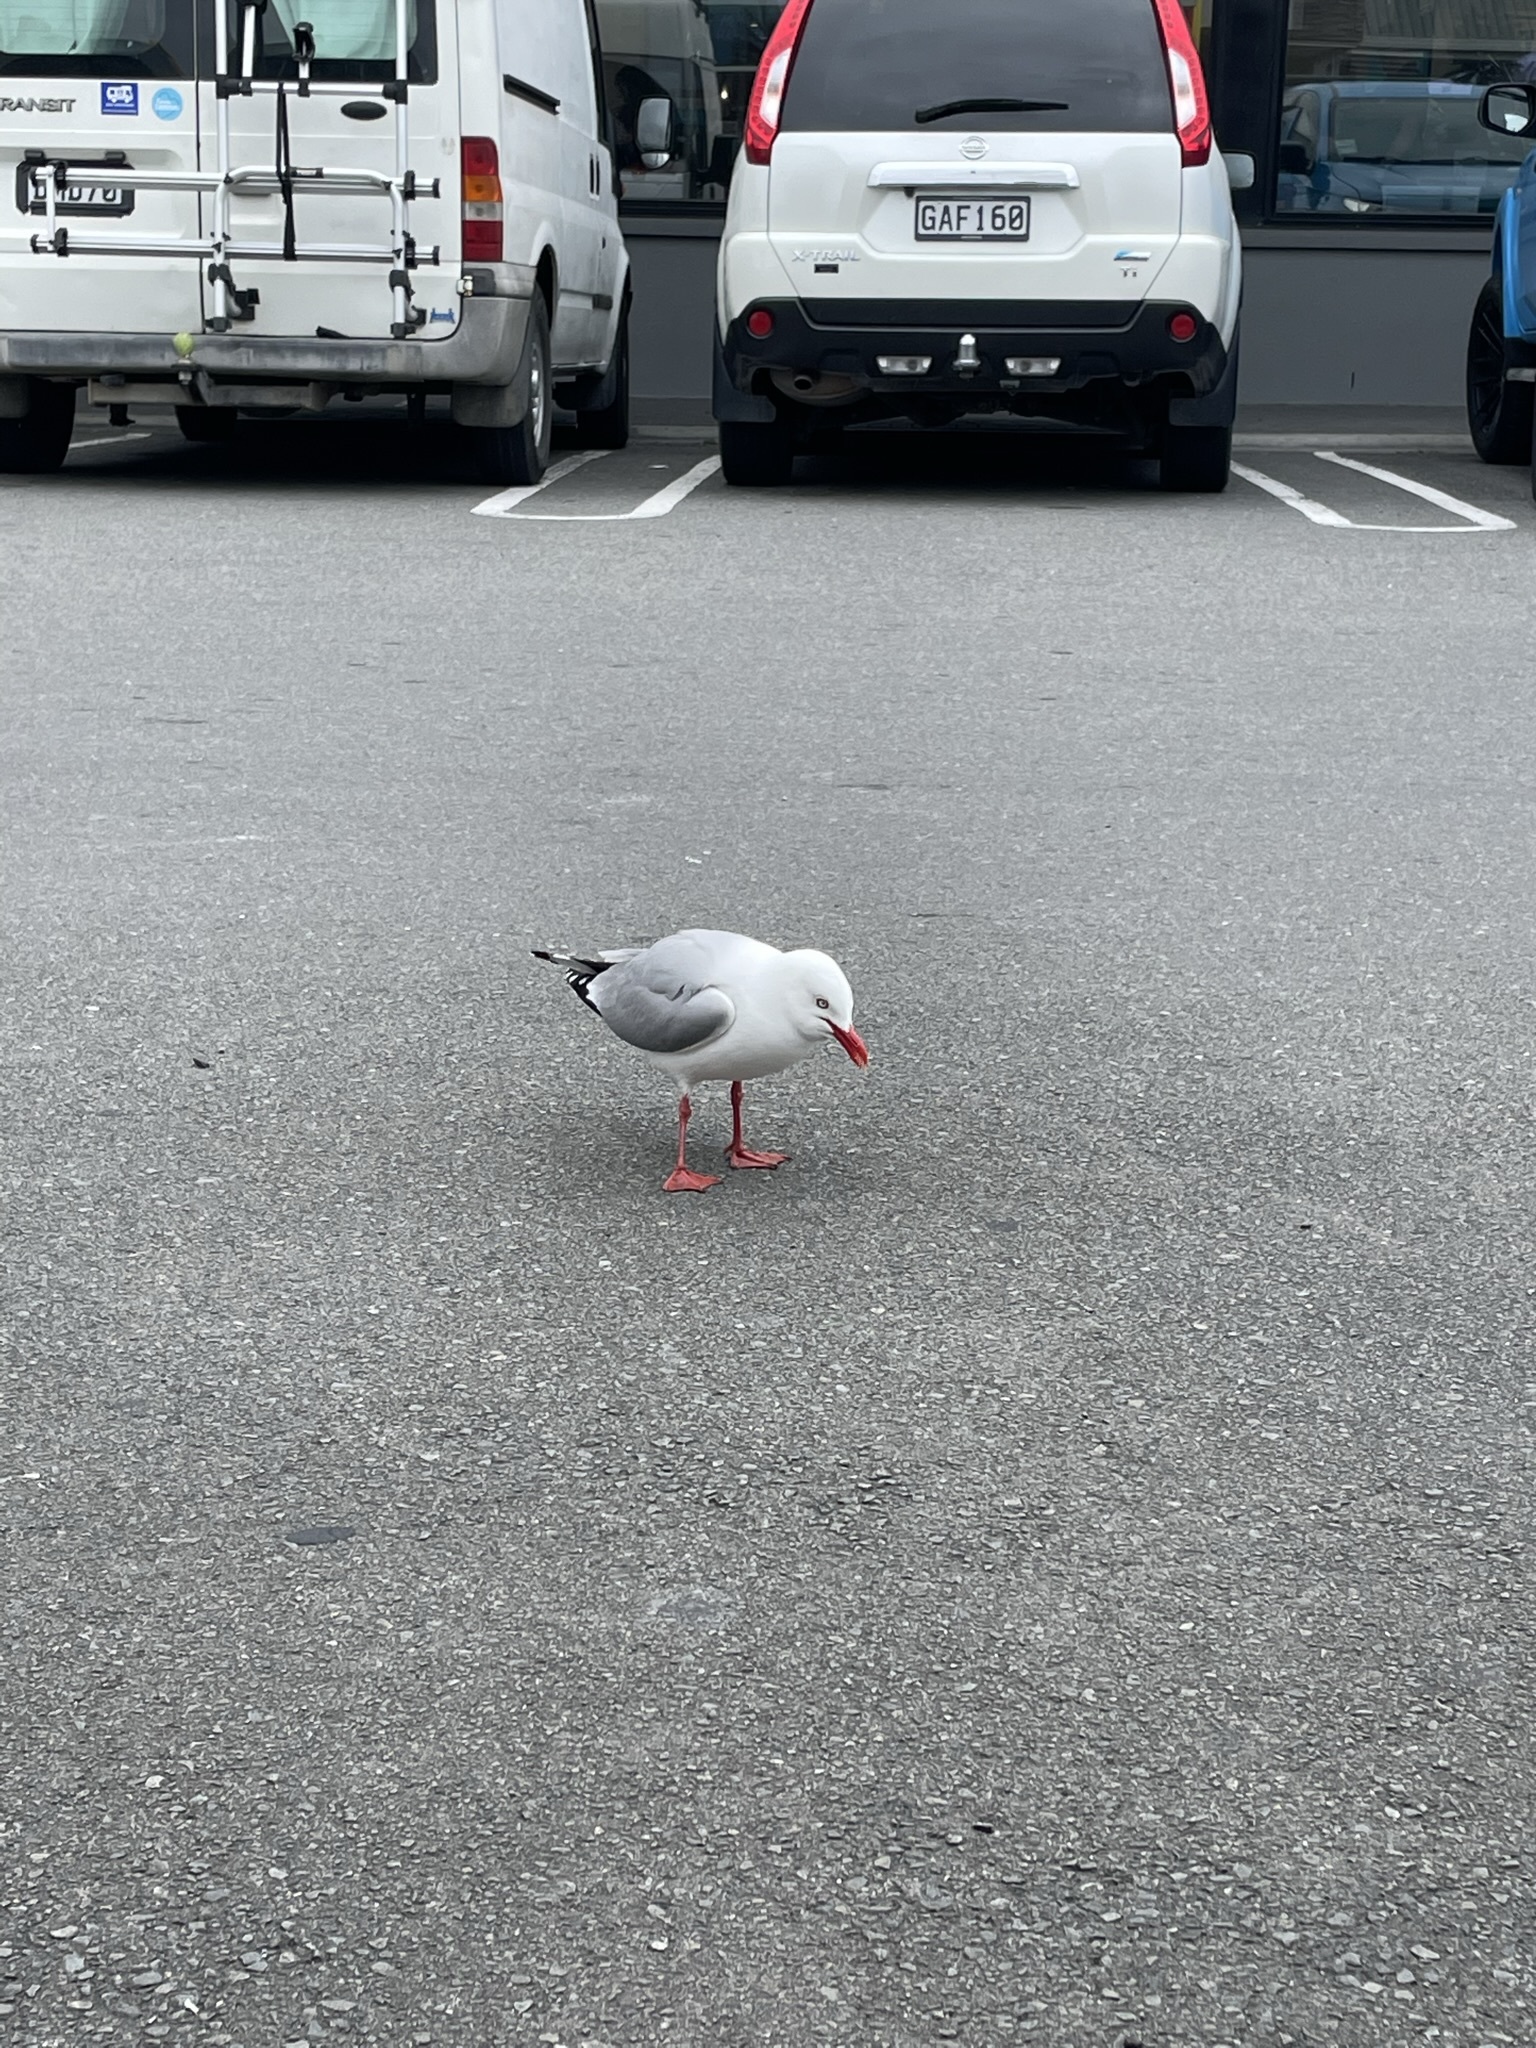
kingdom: Animalia
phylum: Chordata
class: Aves
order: Charadriiformes
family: Laridae
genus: Chroicocephalus
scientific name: Chroicocephalus novaehollandiae
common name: Silver gull
